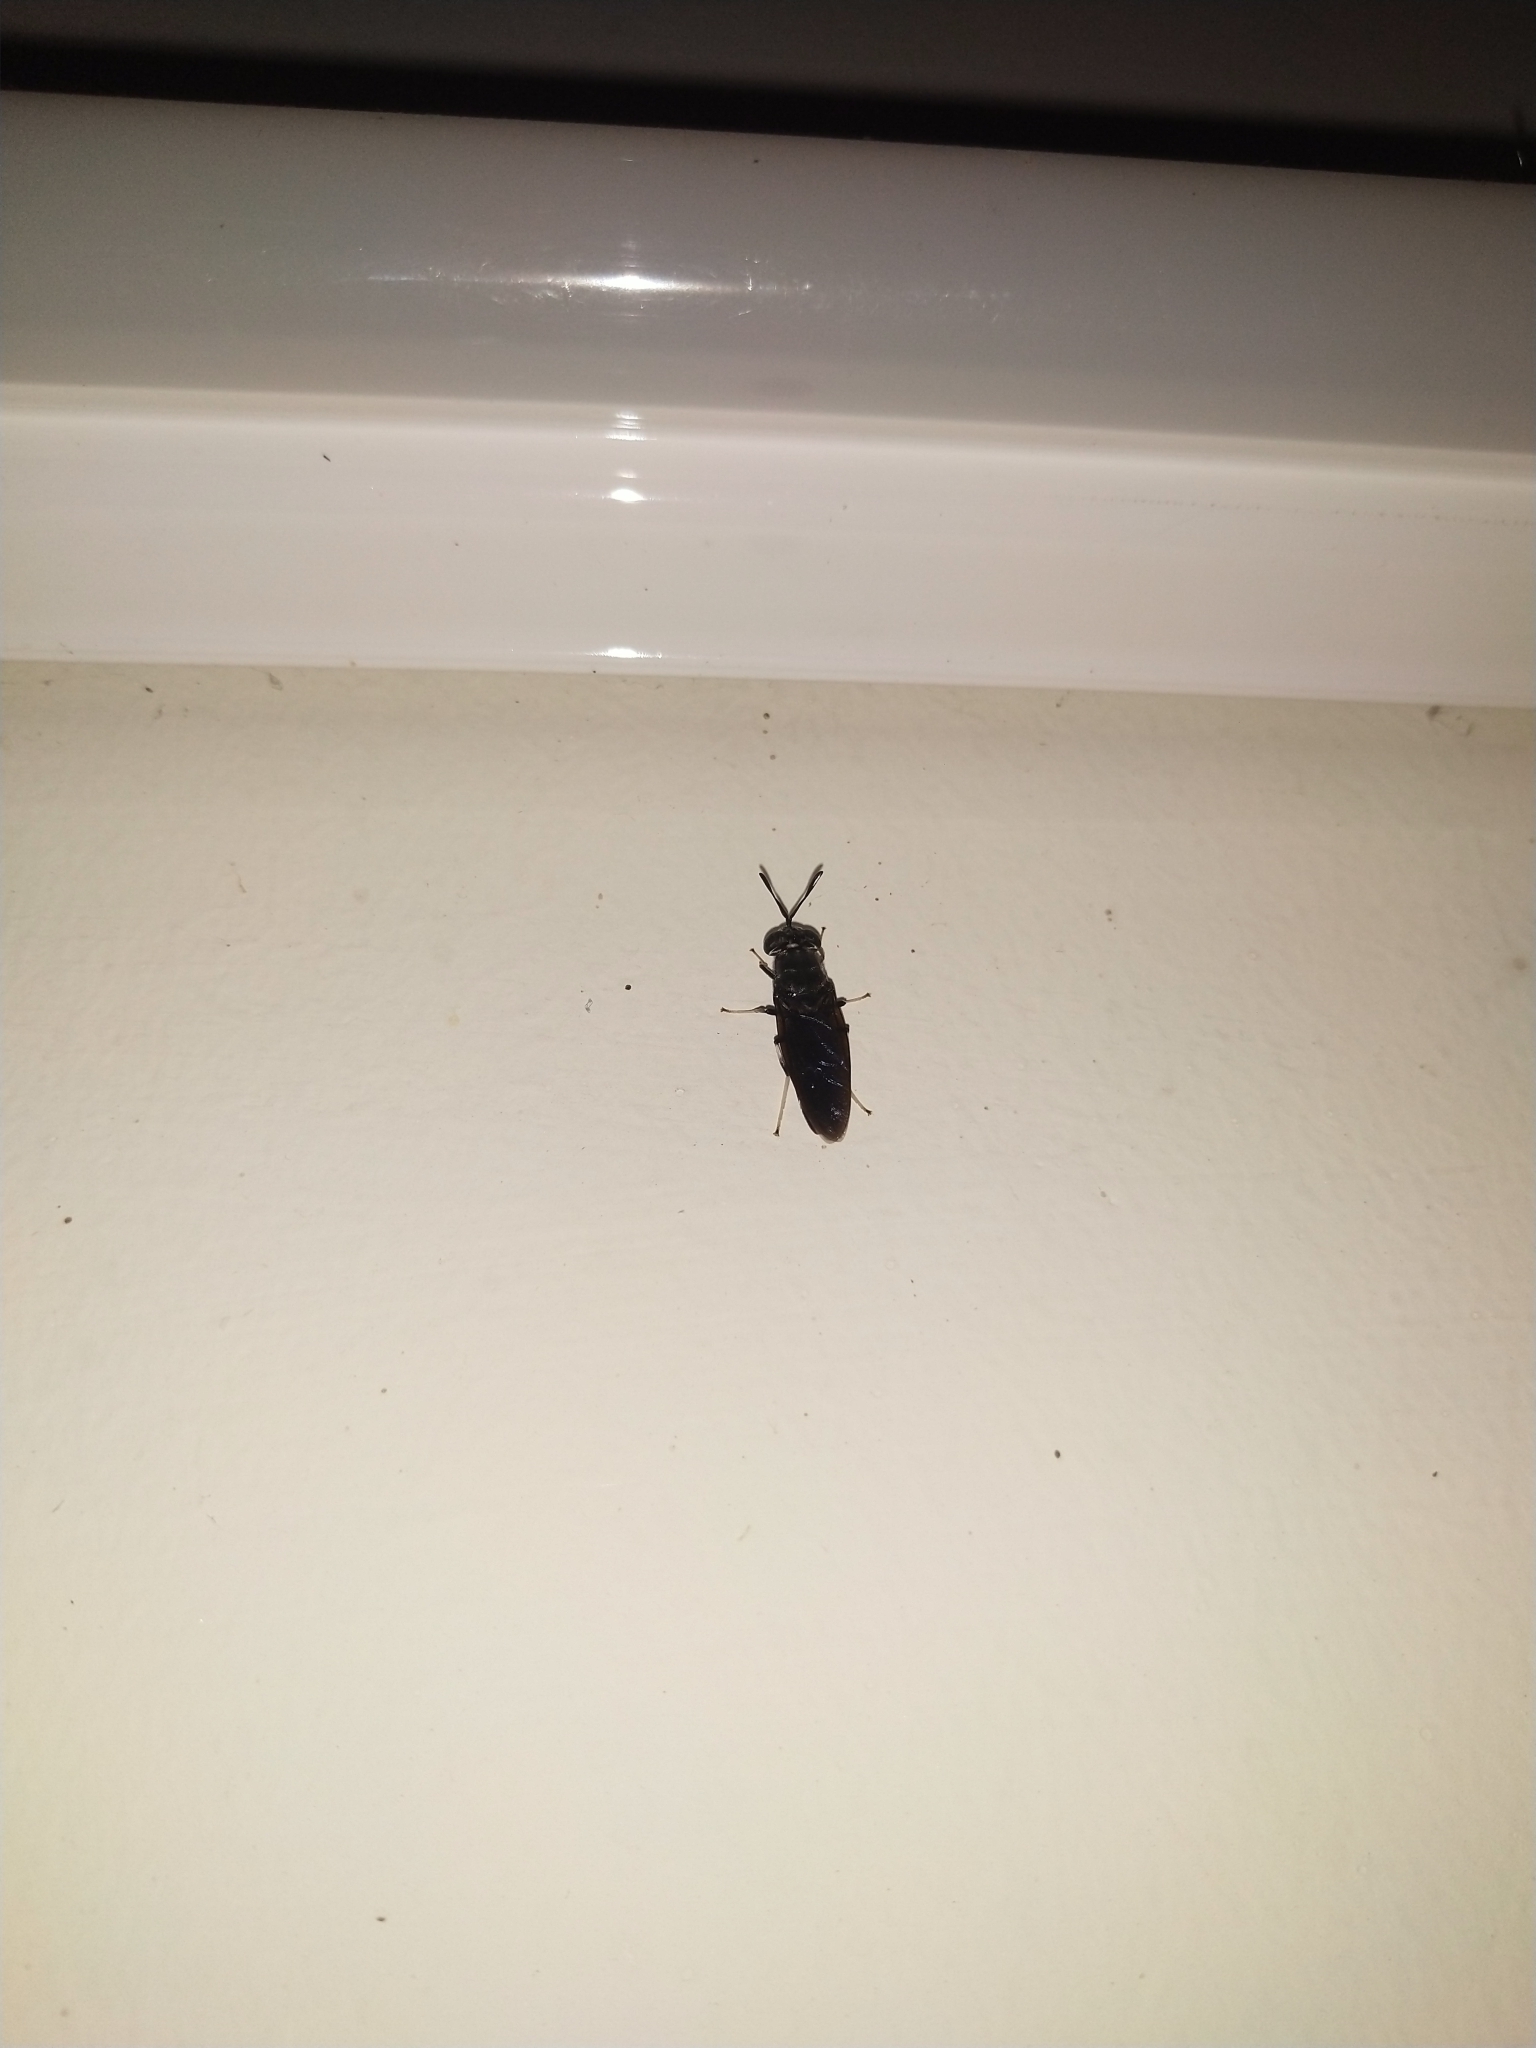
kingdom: Animalia
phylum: Arthropoda
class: Insecta
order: Diptera
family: Stratiomyidae
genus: Hermetia
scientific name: Hermetia illucens
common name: Black soldier fly
